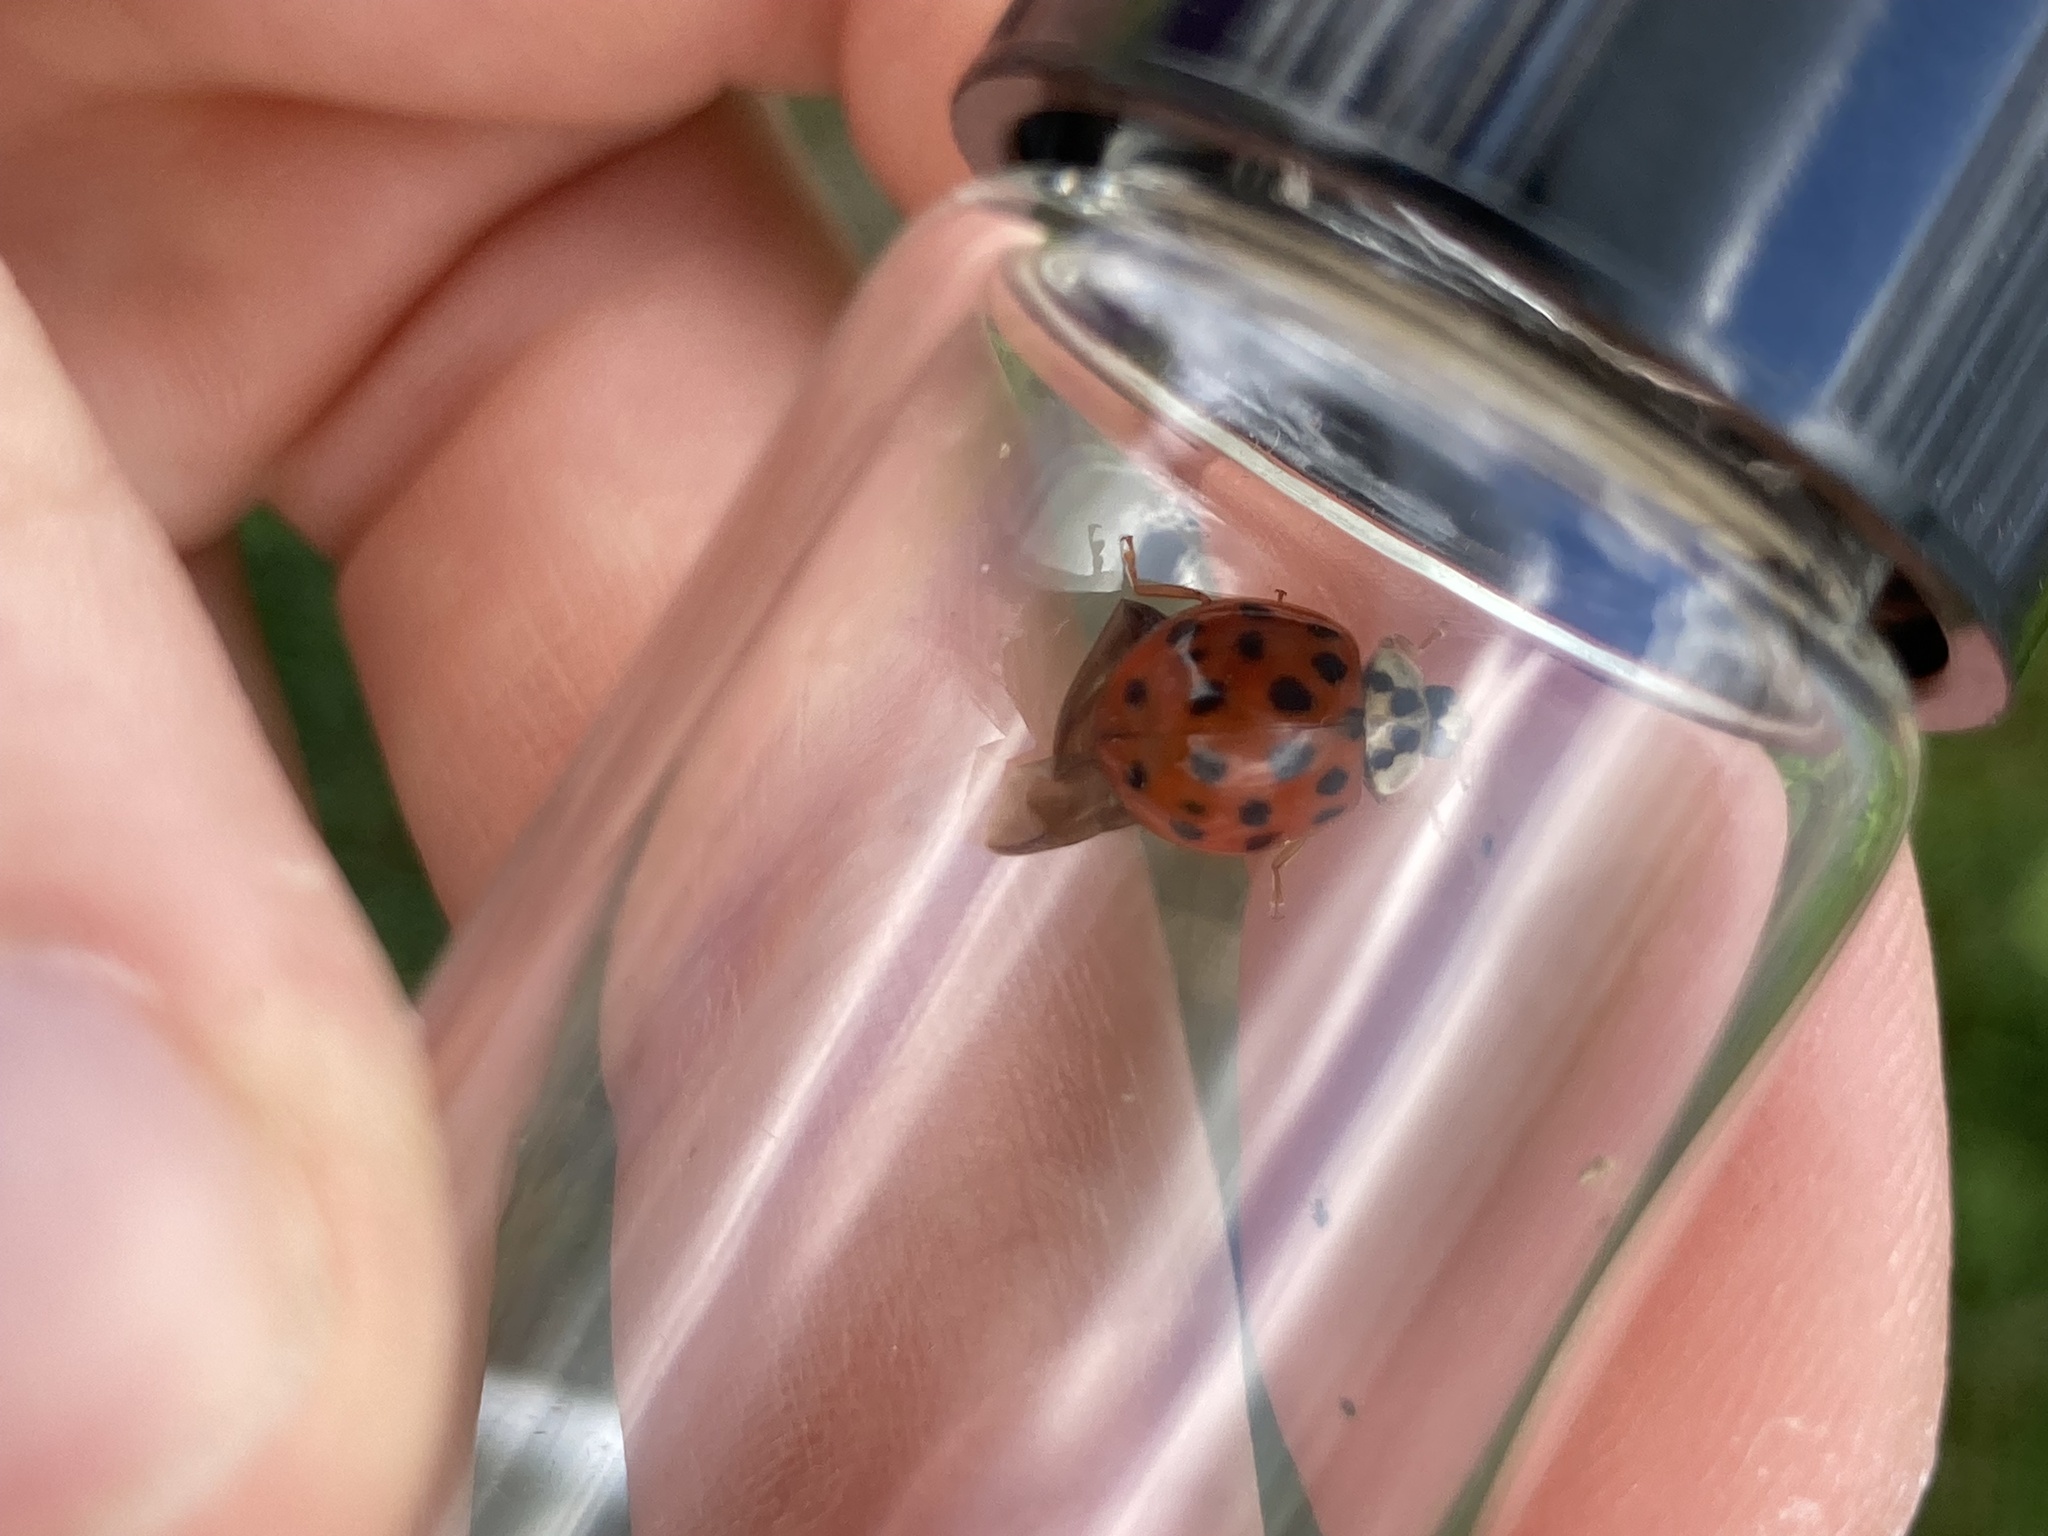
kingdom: Animalia
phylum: Arthropoda
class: Insecta
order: Coleoptera
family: Coccinellidae
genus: Harmonia
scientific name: Harmonia axyridis
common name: Harlequin ladybird
